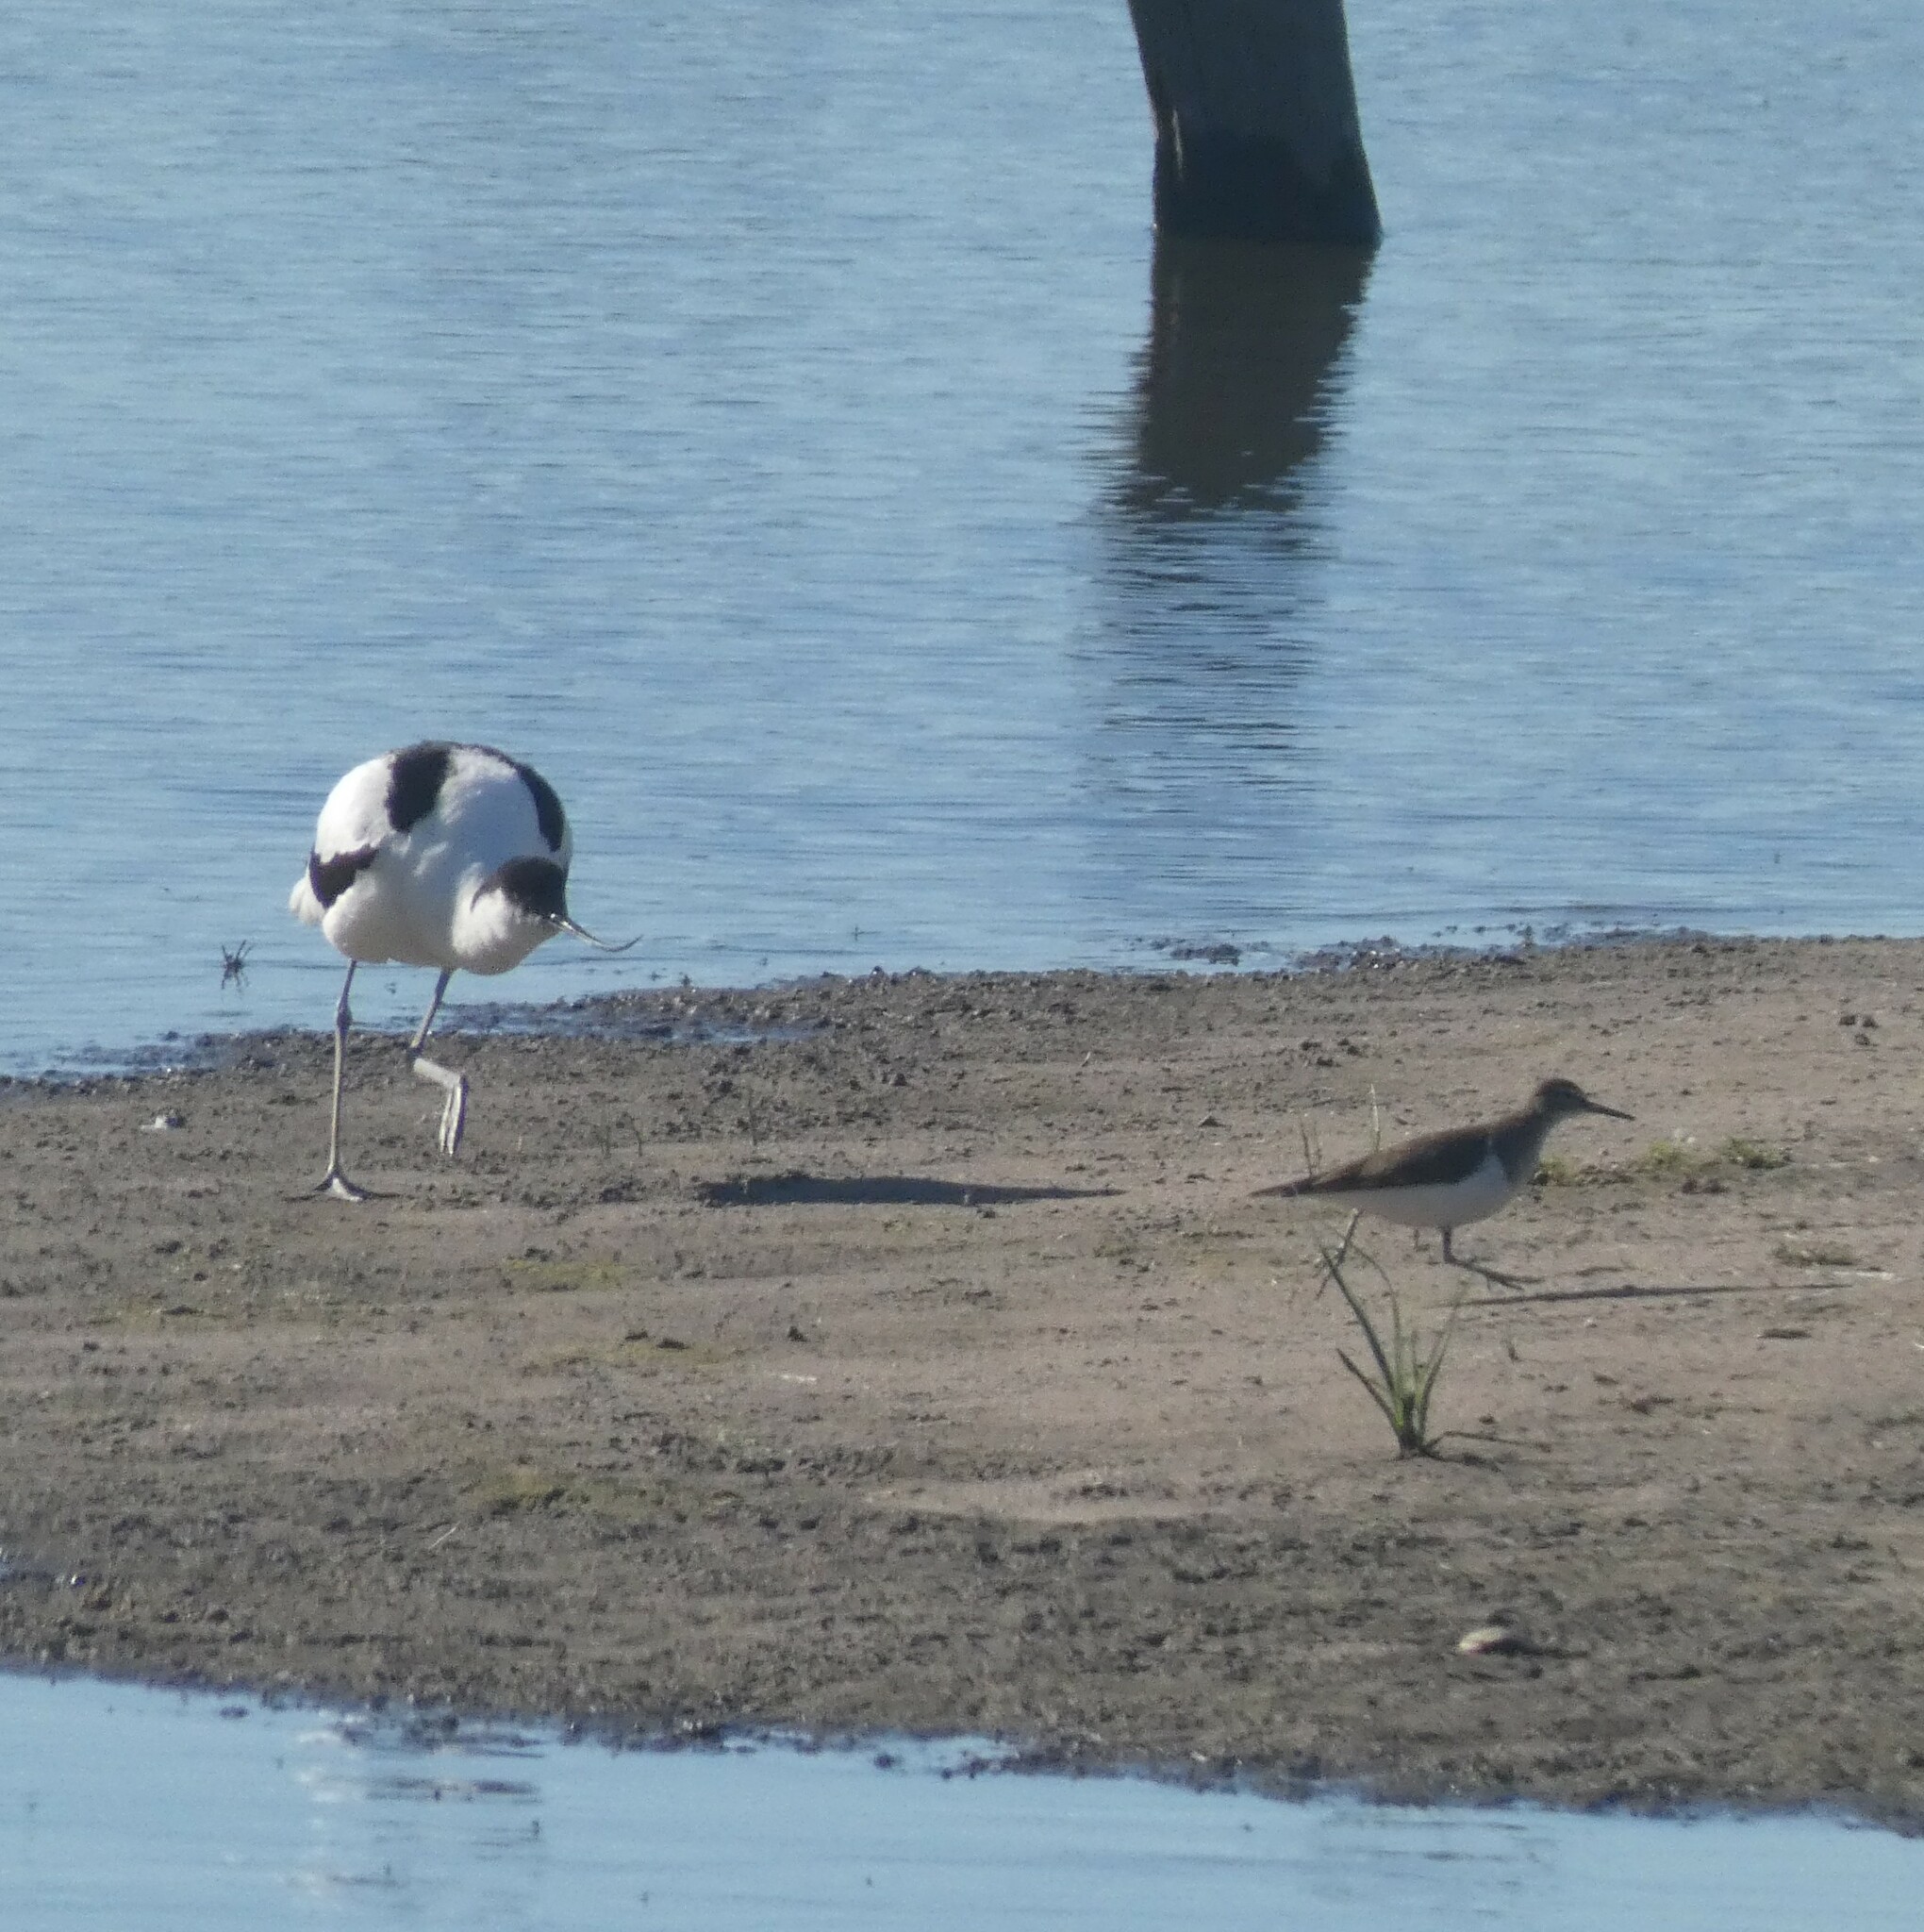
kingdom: Animalia
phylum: Chordata
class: Aves
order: Charadriiformes
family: Recurvirostridae
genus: Recurvirostra
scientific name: Recurvirostra avosetta
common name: Pied avocet
